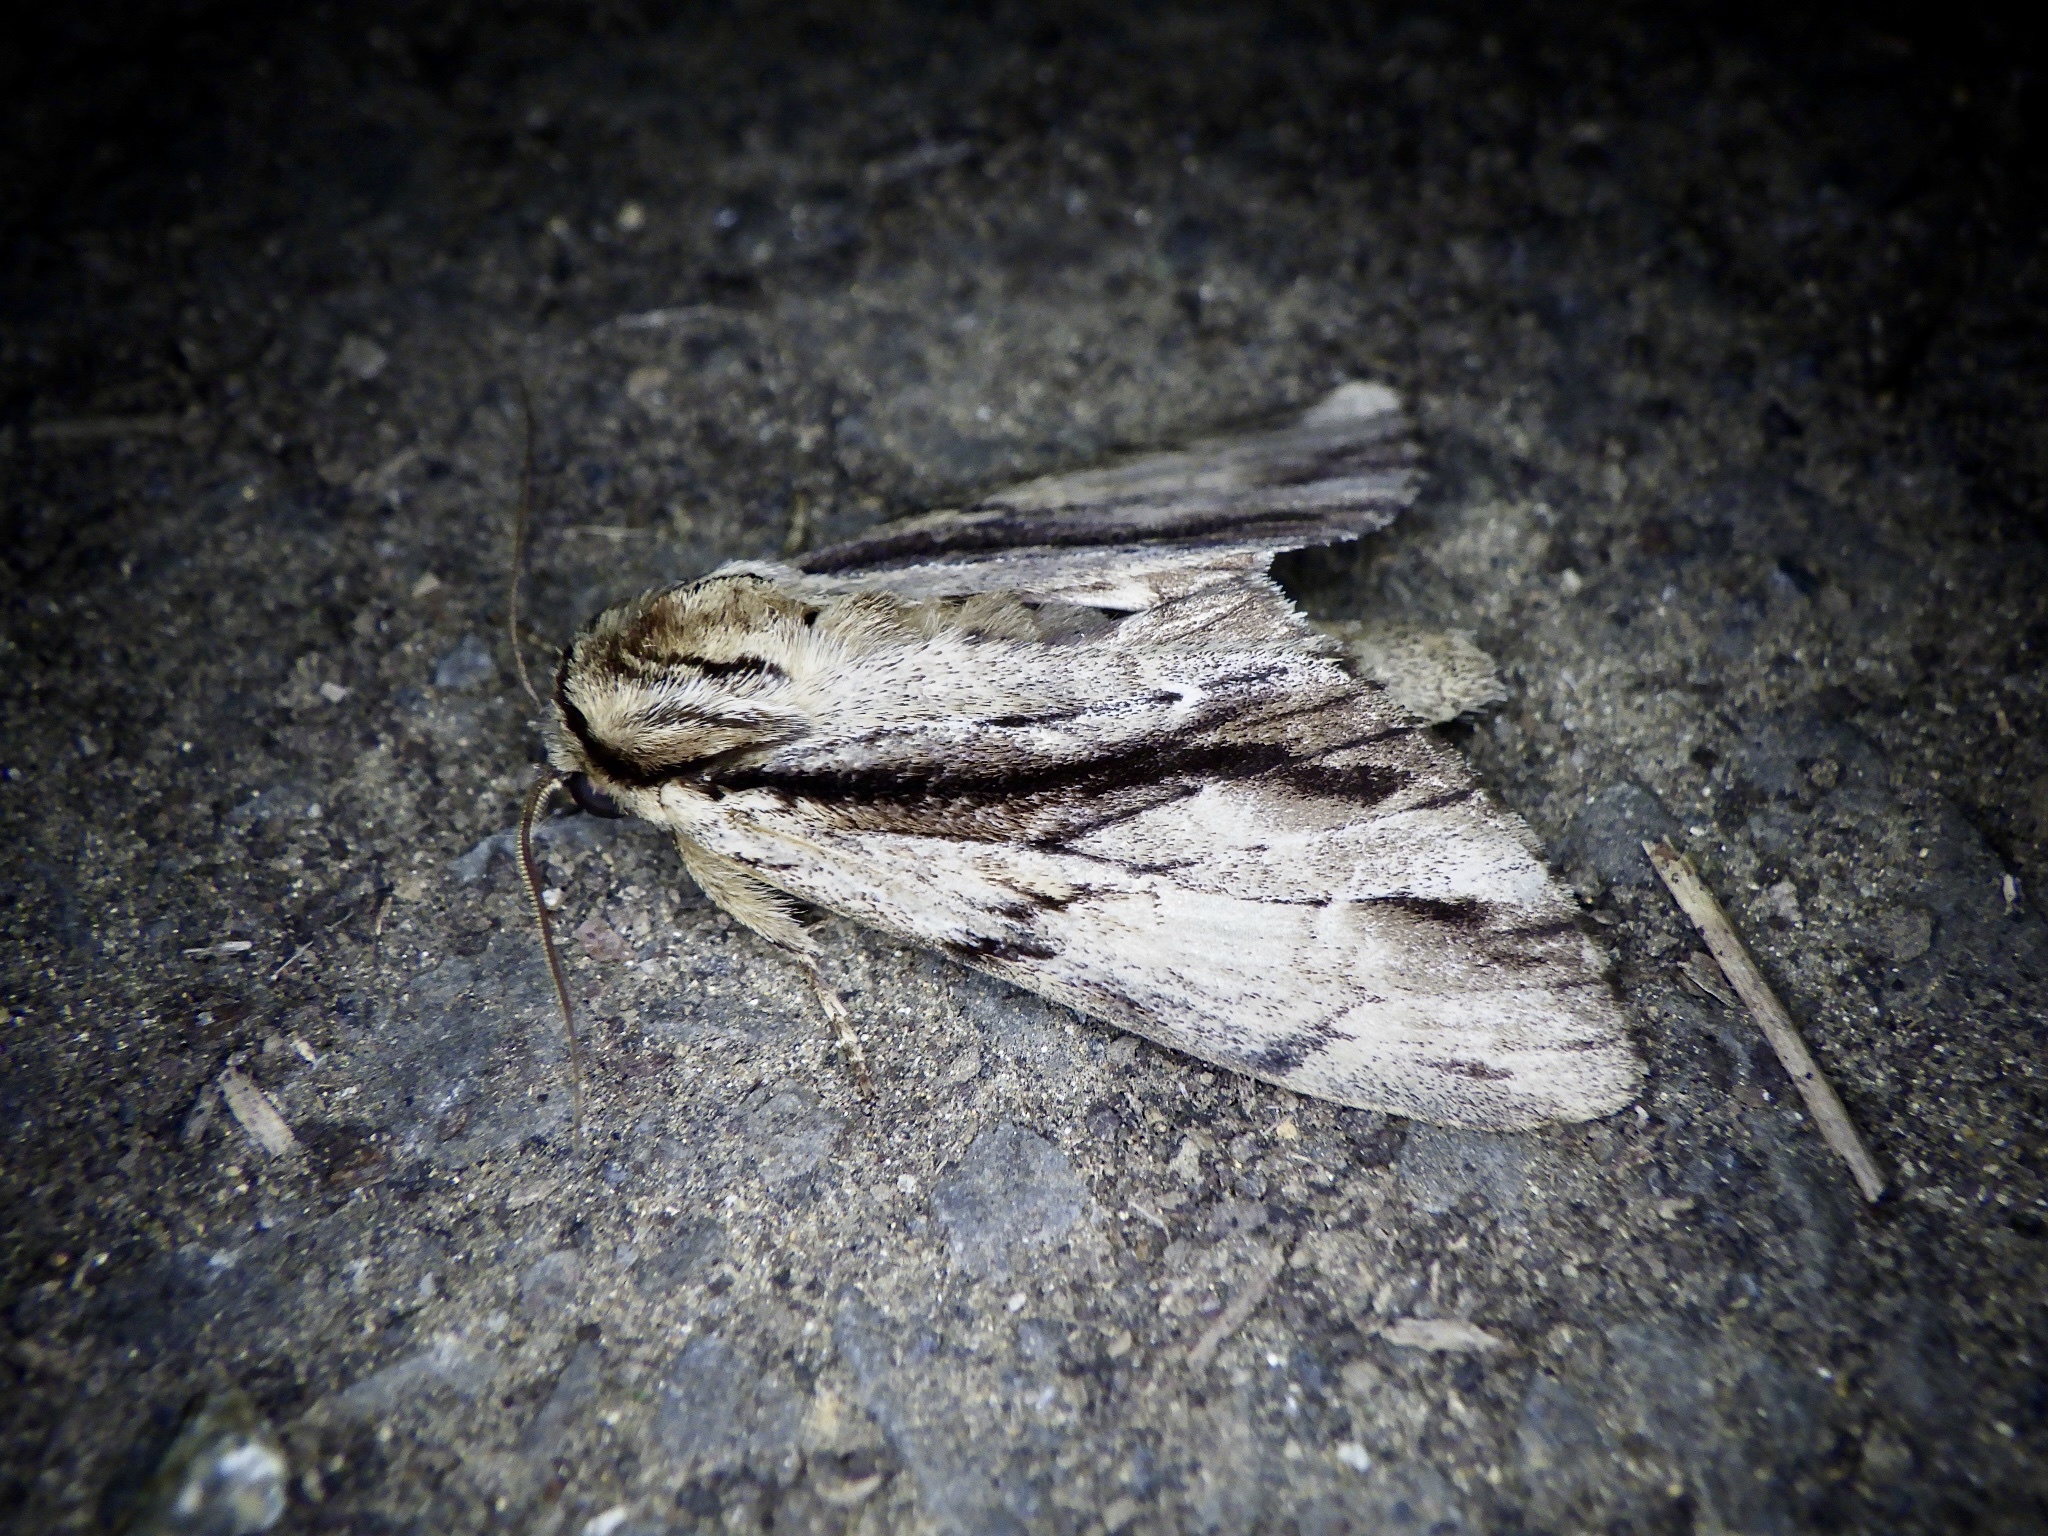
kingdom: Animalia
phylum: Arthropoda
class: Insecta
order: Lepidoptera
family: Notodontidae
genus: Shaka
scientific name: Shaka atrovittatus
